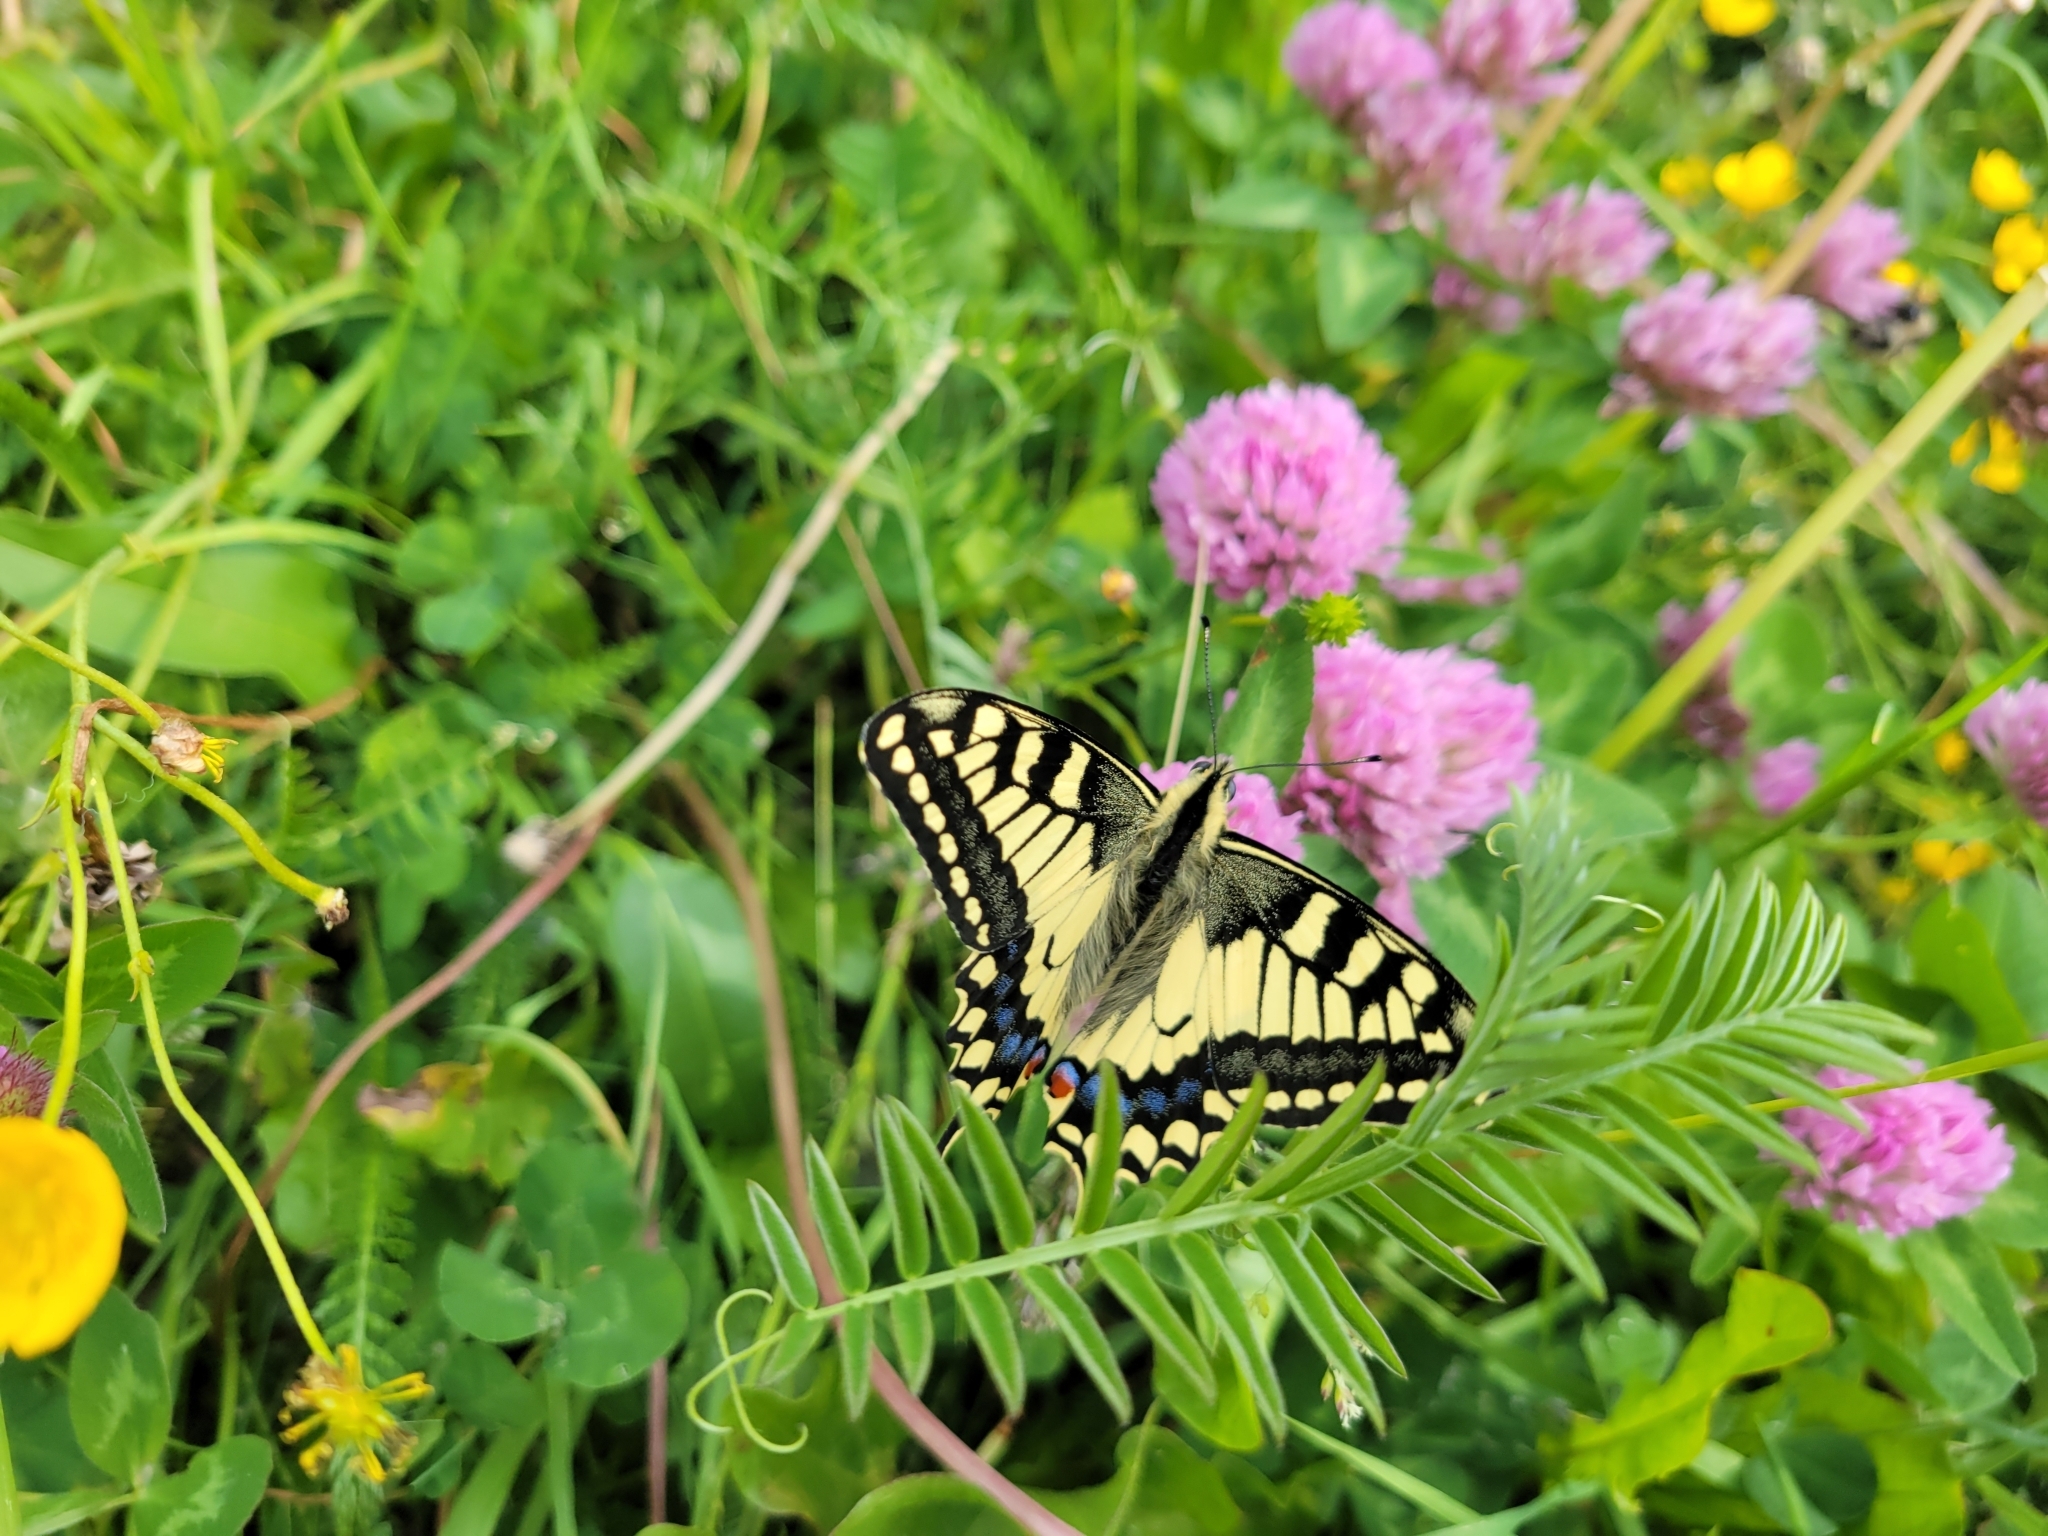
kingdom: Animalia
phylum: Arthropoda
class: Insecta
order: Lepidoptera
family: Papilionidae
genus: Papilio
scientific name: Papilio machaon
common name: Swallowtail
